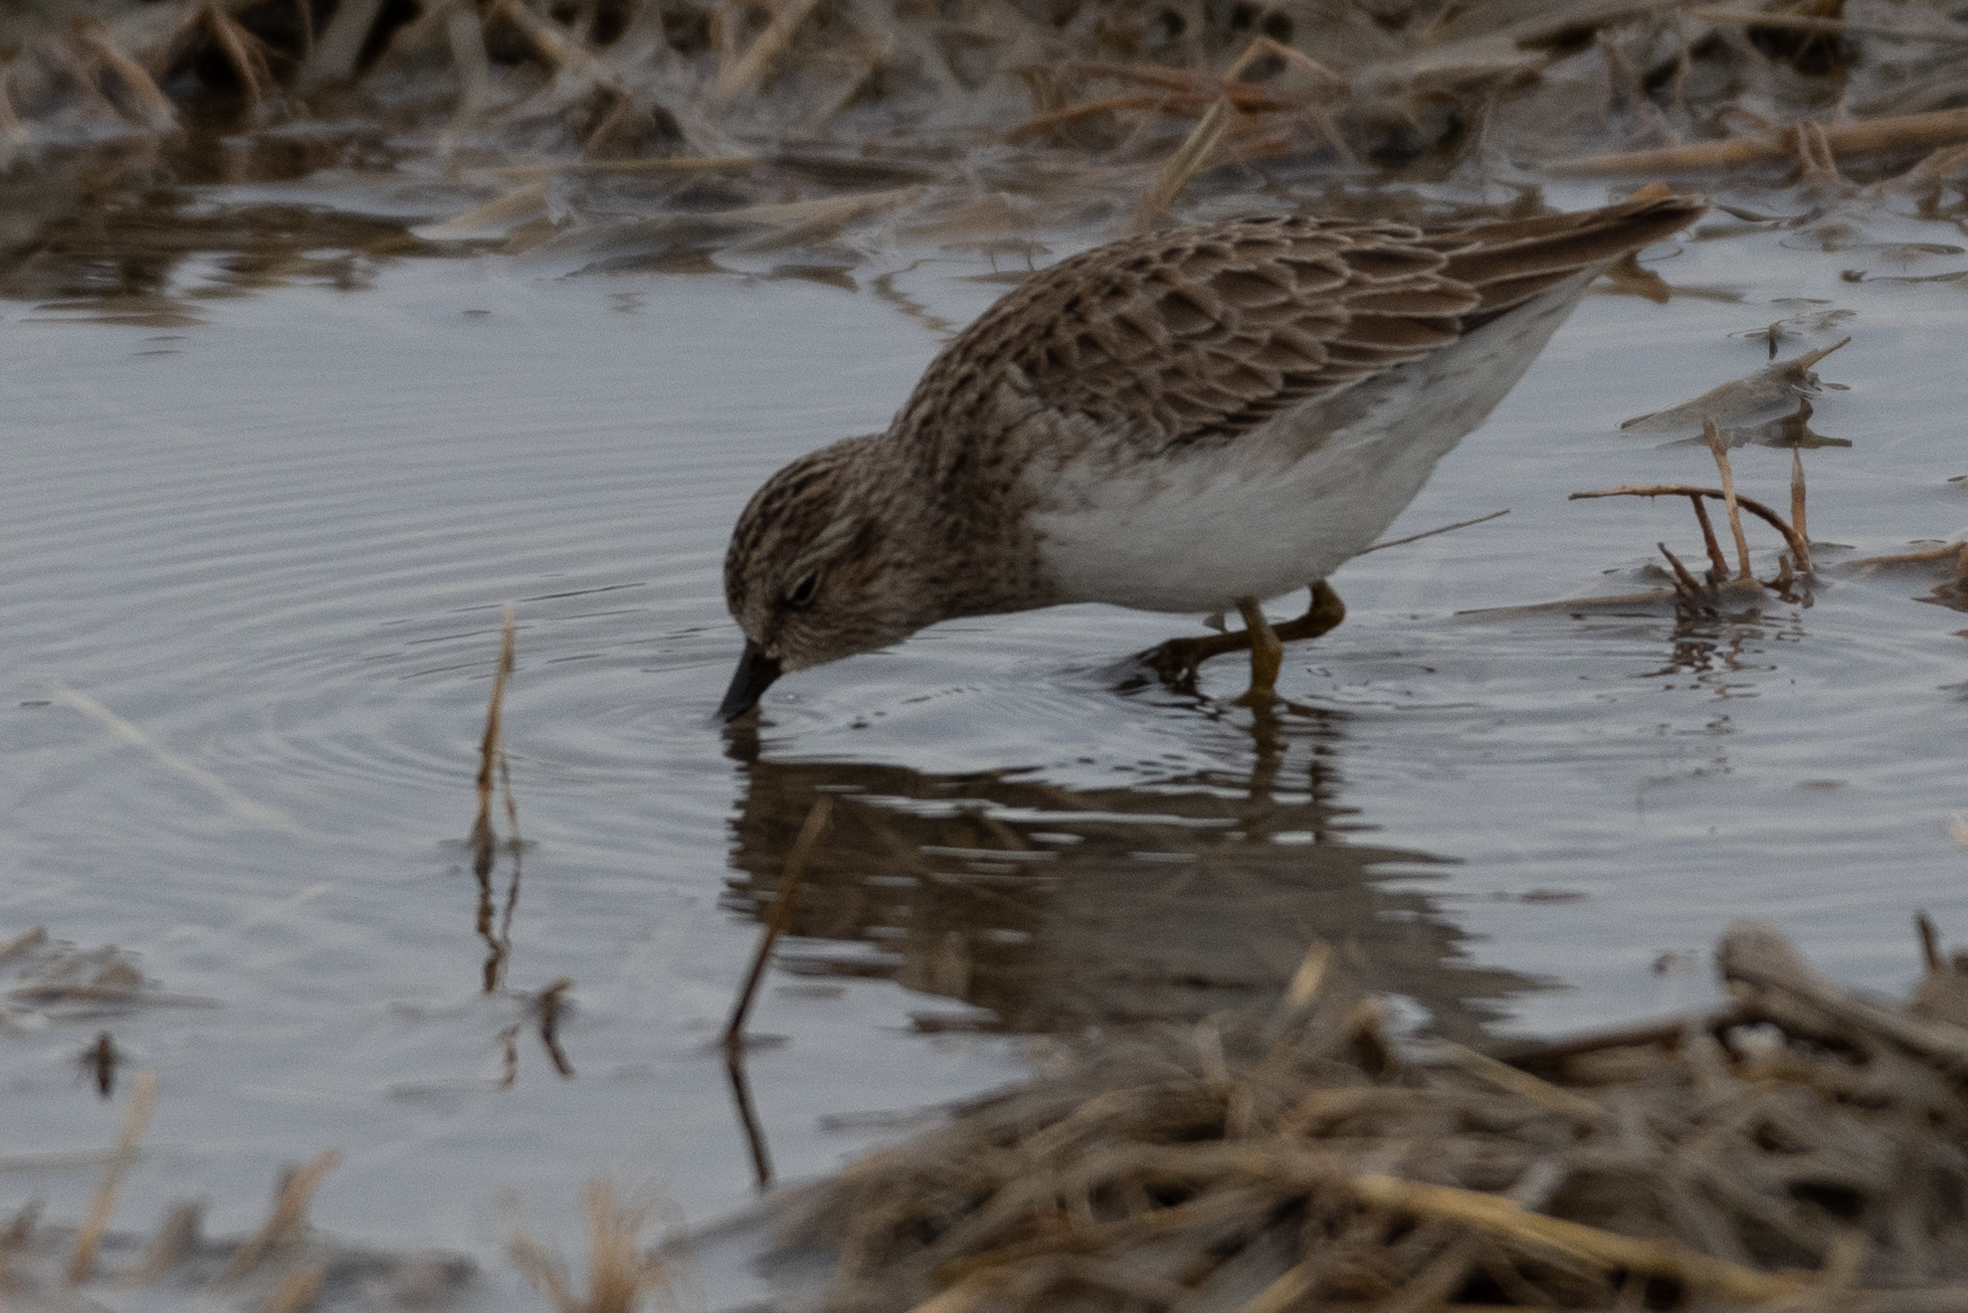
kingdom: Animalia
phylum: Chordata
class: Aves
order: Charadriiformes
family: Scolopacidae
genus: Calidris
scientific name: Calidris minutilla
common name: Least sandpiper
